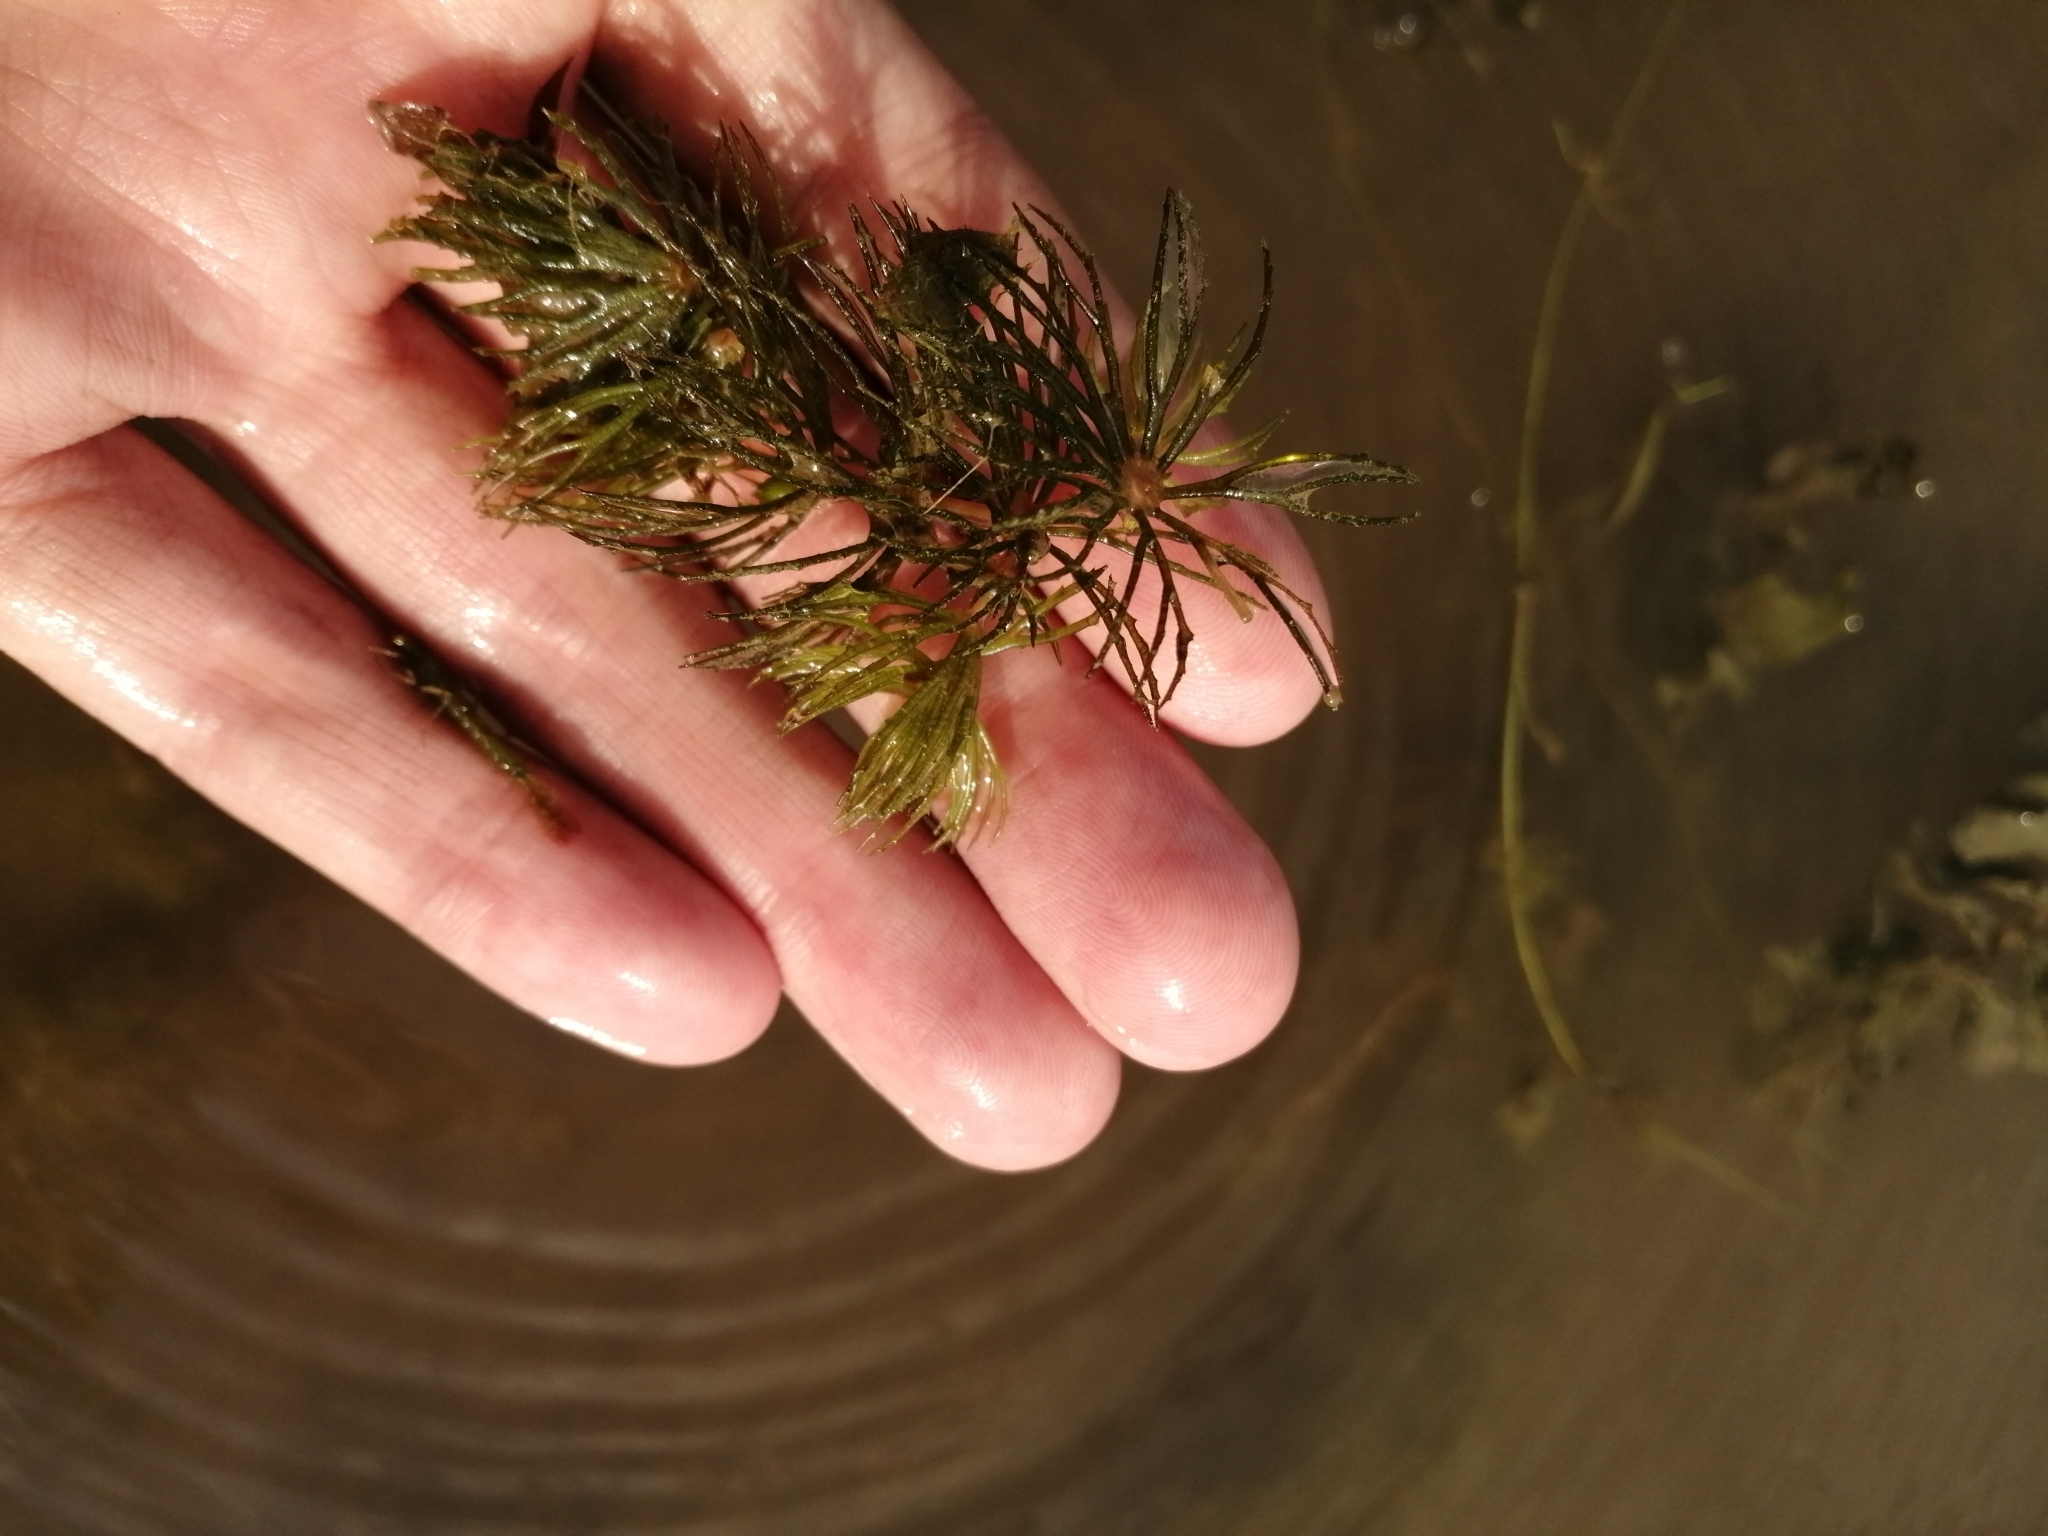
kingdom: Plantae
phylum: Tracheophyta
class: Magnoliopsida
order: Ceratophyllales
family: Ceratophyllaceae
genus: Ceratophyllum
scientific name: Ceratophyllum demersum
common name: Rigid hornwort
